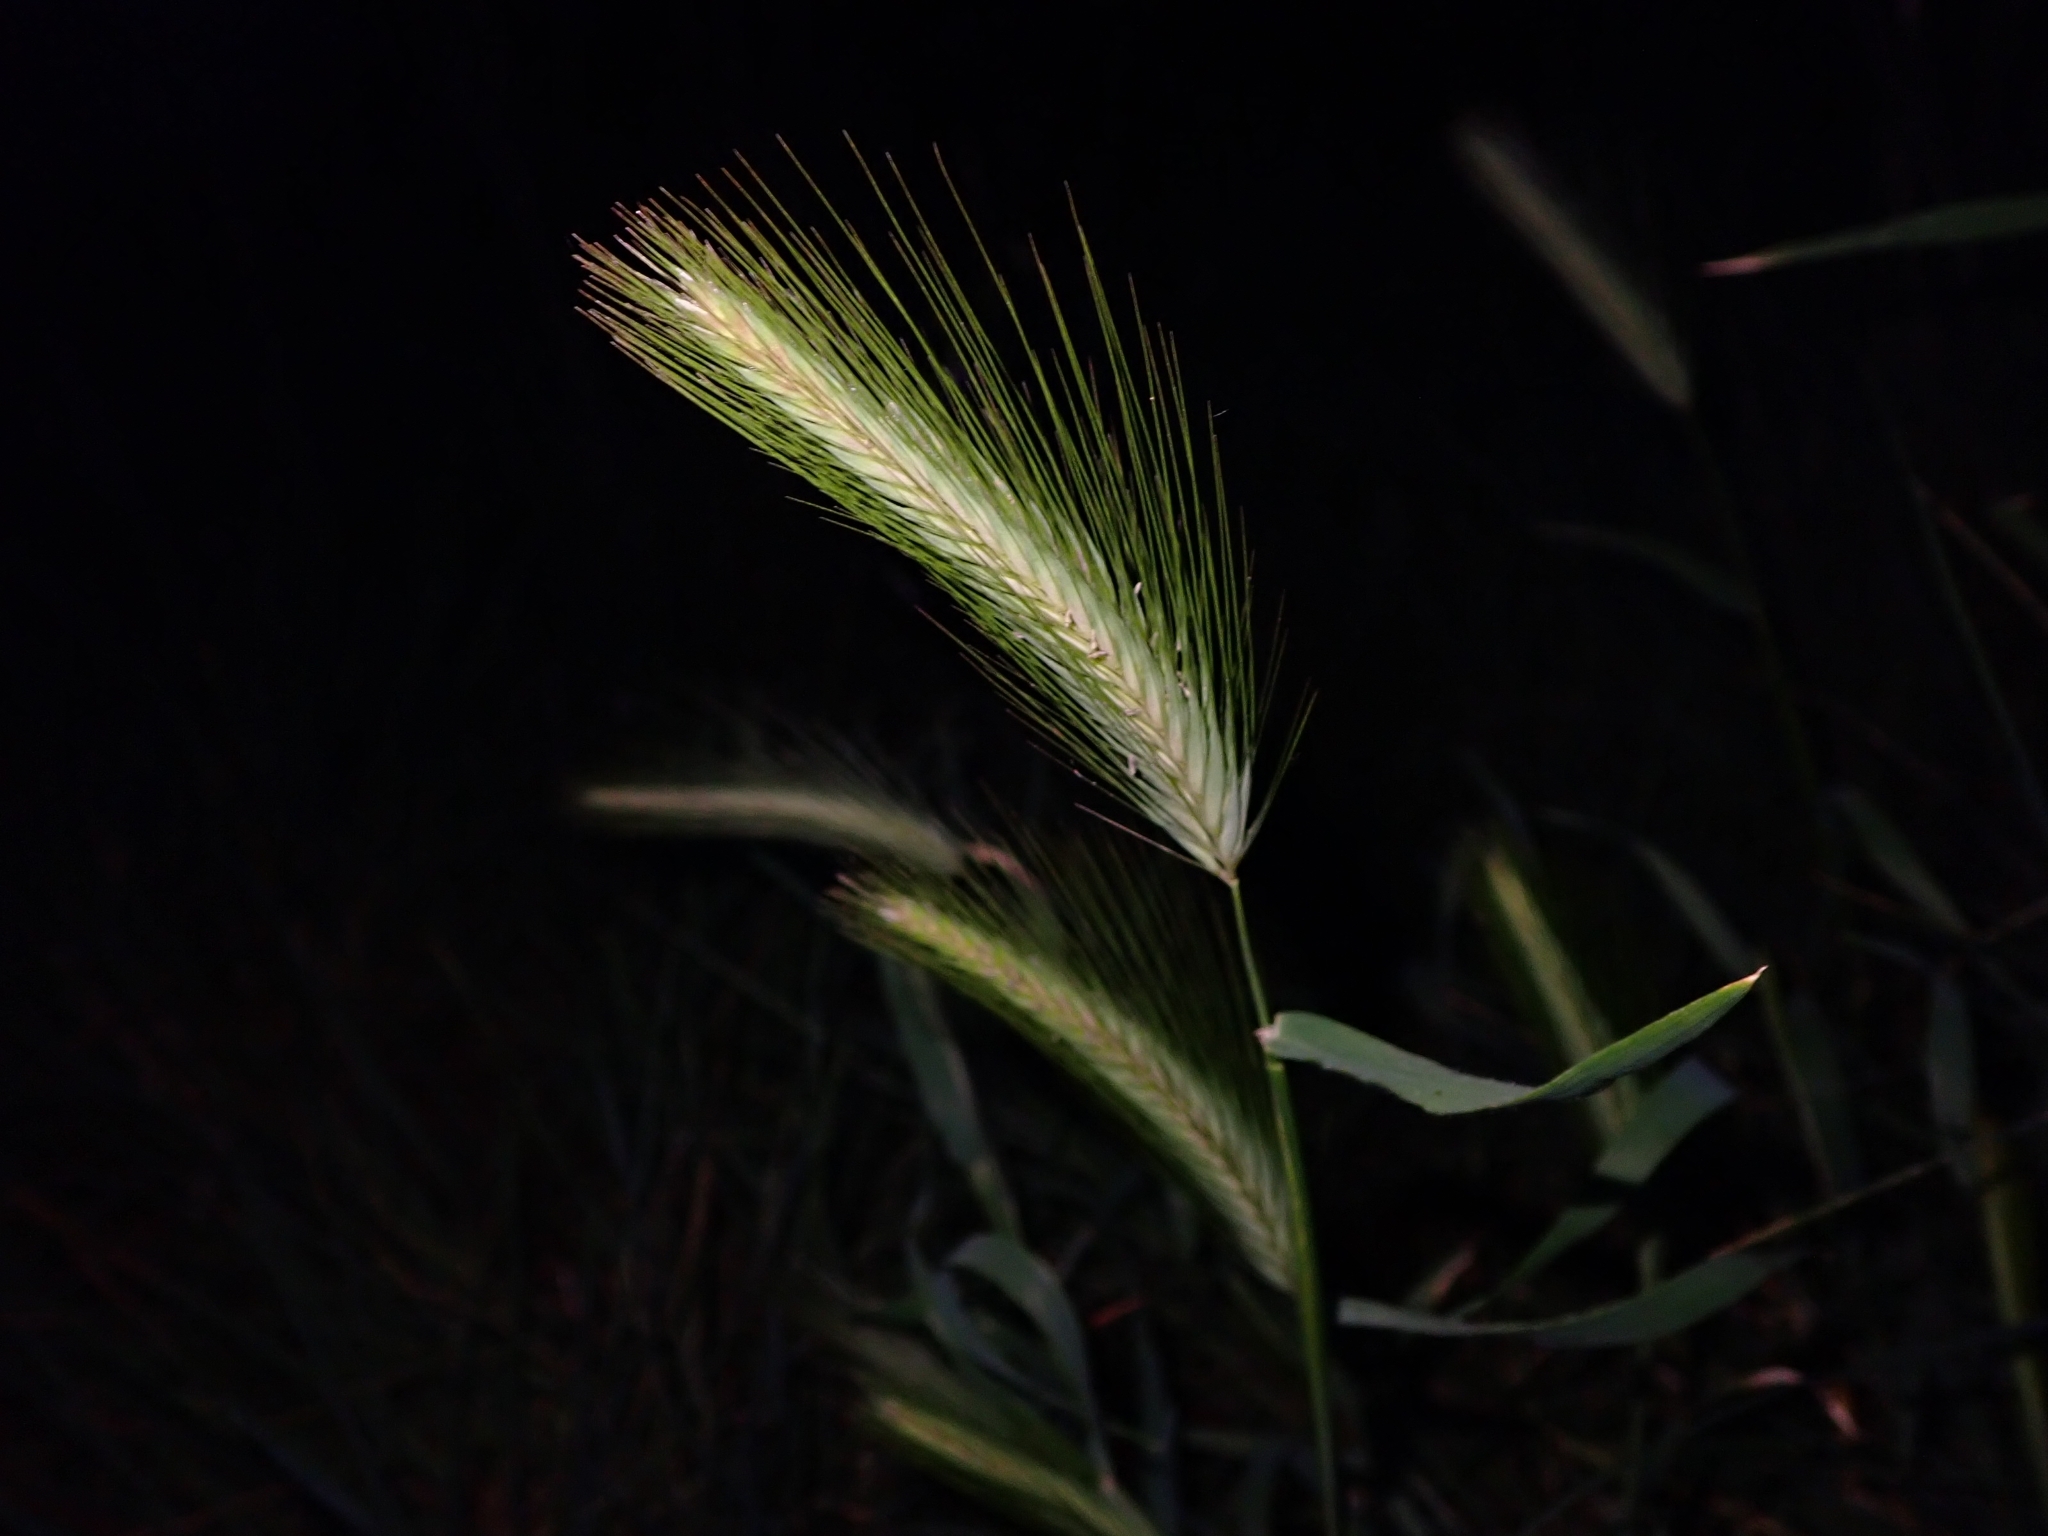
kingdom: Plantae
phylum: Tracheophyta
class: Liliopsida
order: Poales
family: Poaceae
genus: Hordeum
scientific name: Hordeum murinum
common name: Wall barley
